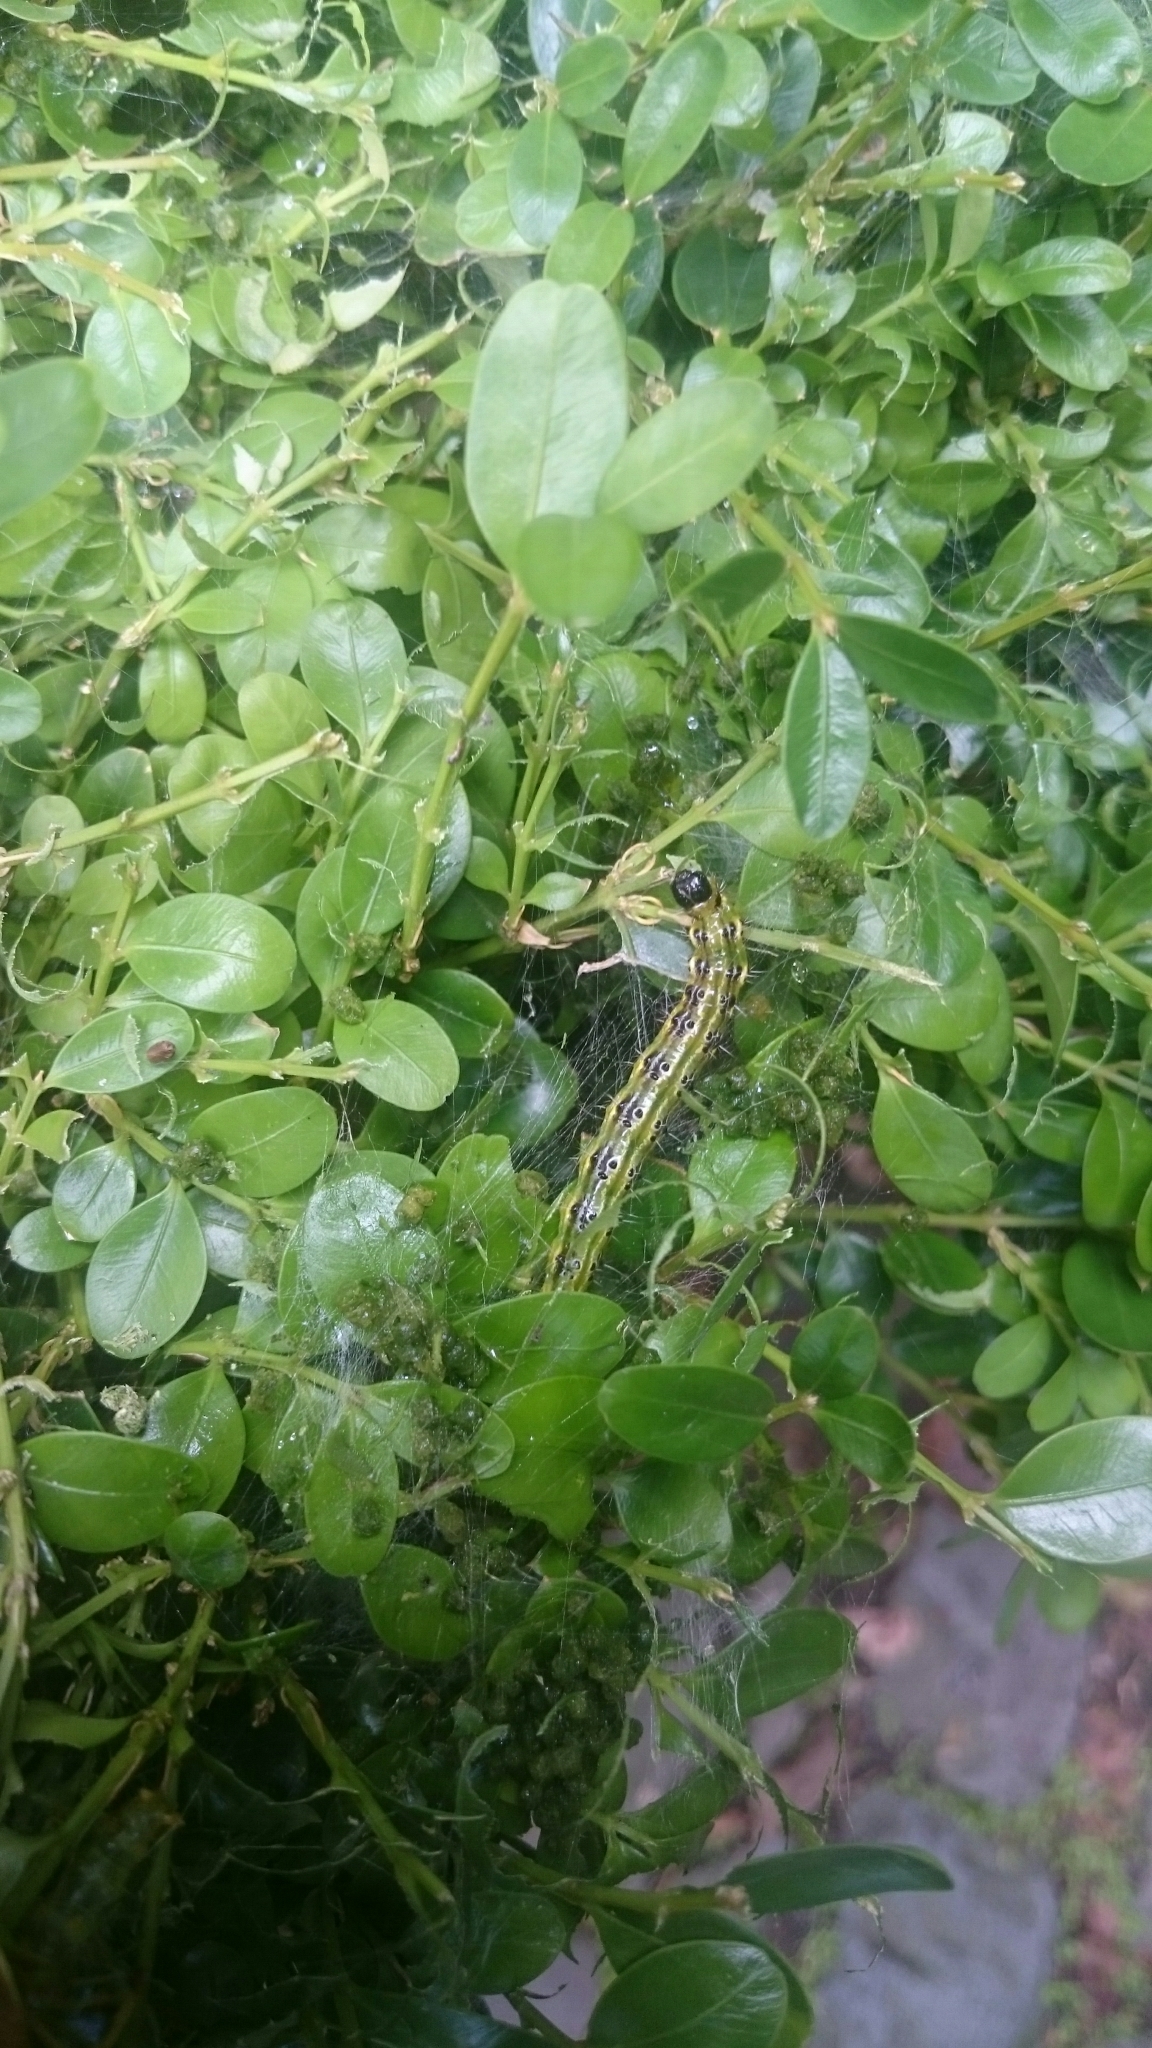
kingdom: Animalia
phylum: Arthropoda
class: Insecta
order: Lepidoptera
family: Crambidae
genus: Cydalima
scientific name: Cydalima perspectalis
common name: Box tree moth
